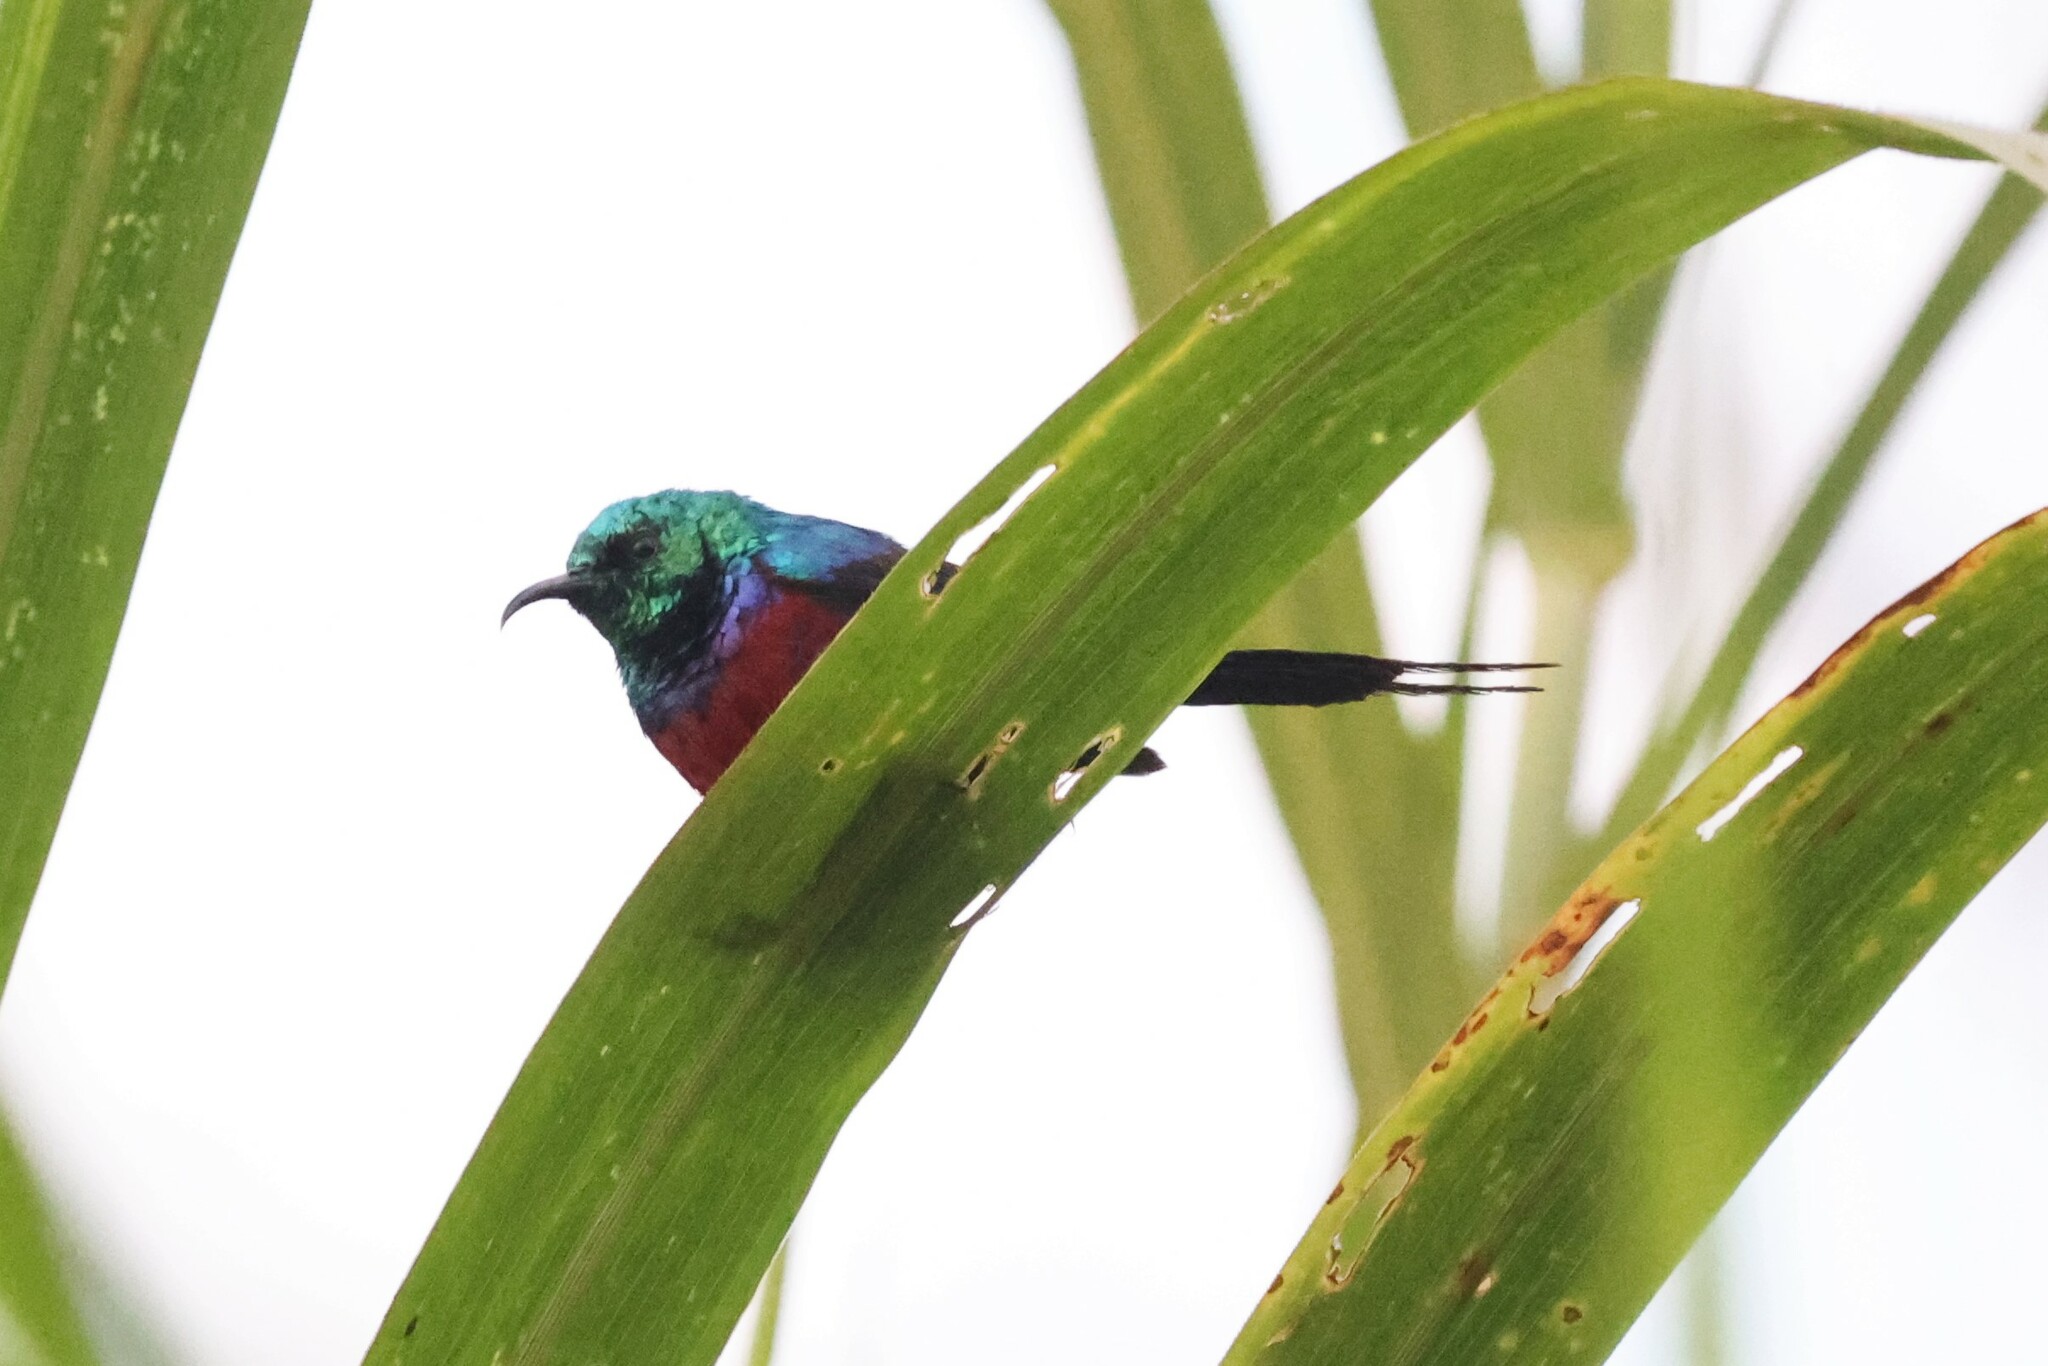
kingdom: Animalia
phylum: Chordata
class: Aves
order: Passeriformes
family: Nectariniidae
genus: Cinnyris
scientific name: Cinnyris erythrocercus
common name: Red-chested sunbird
